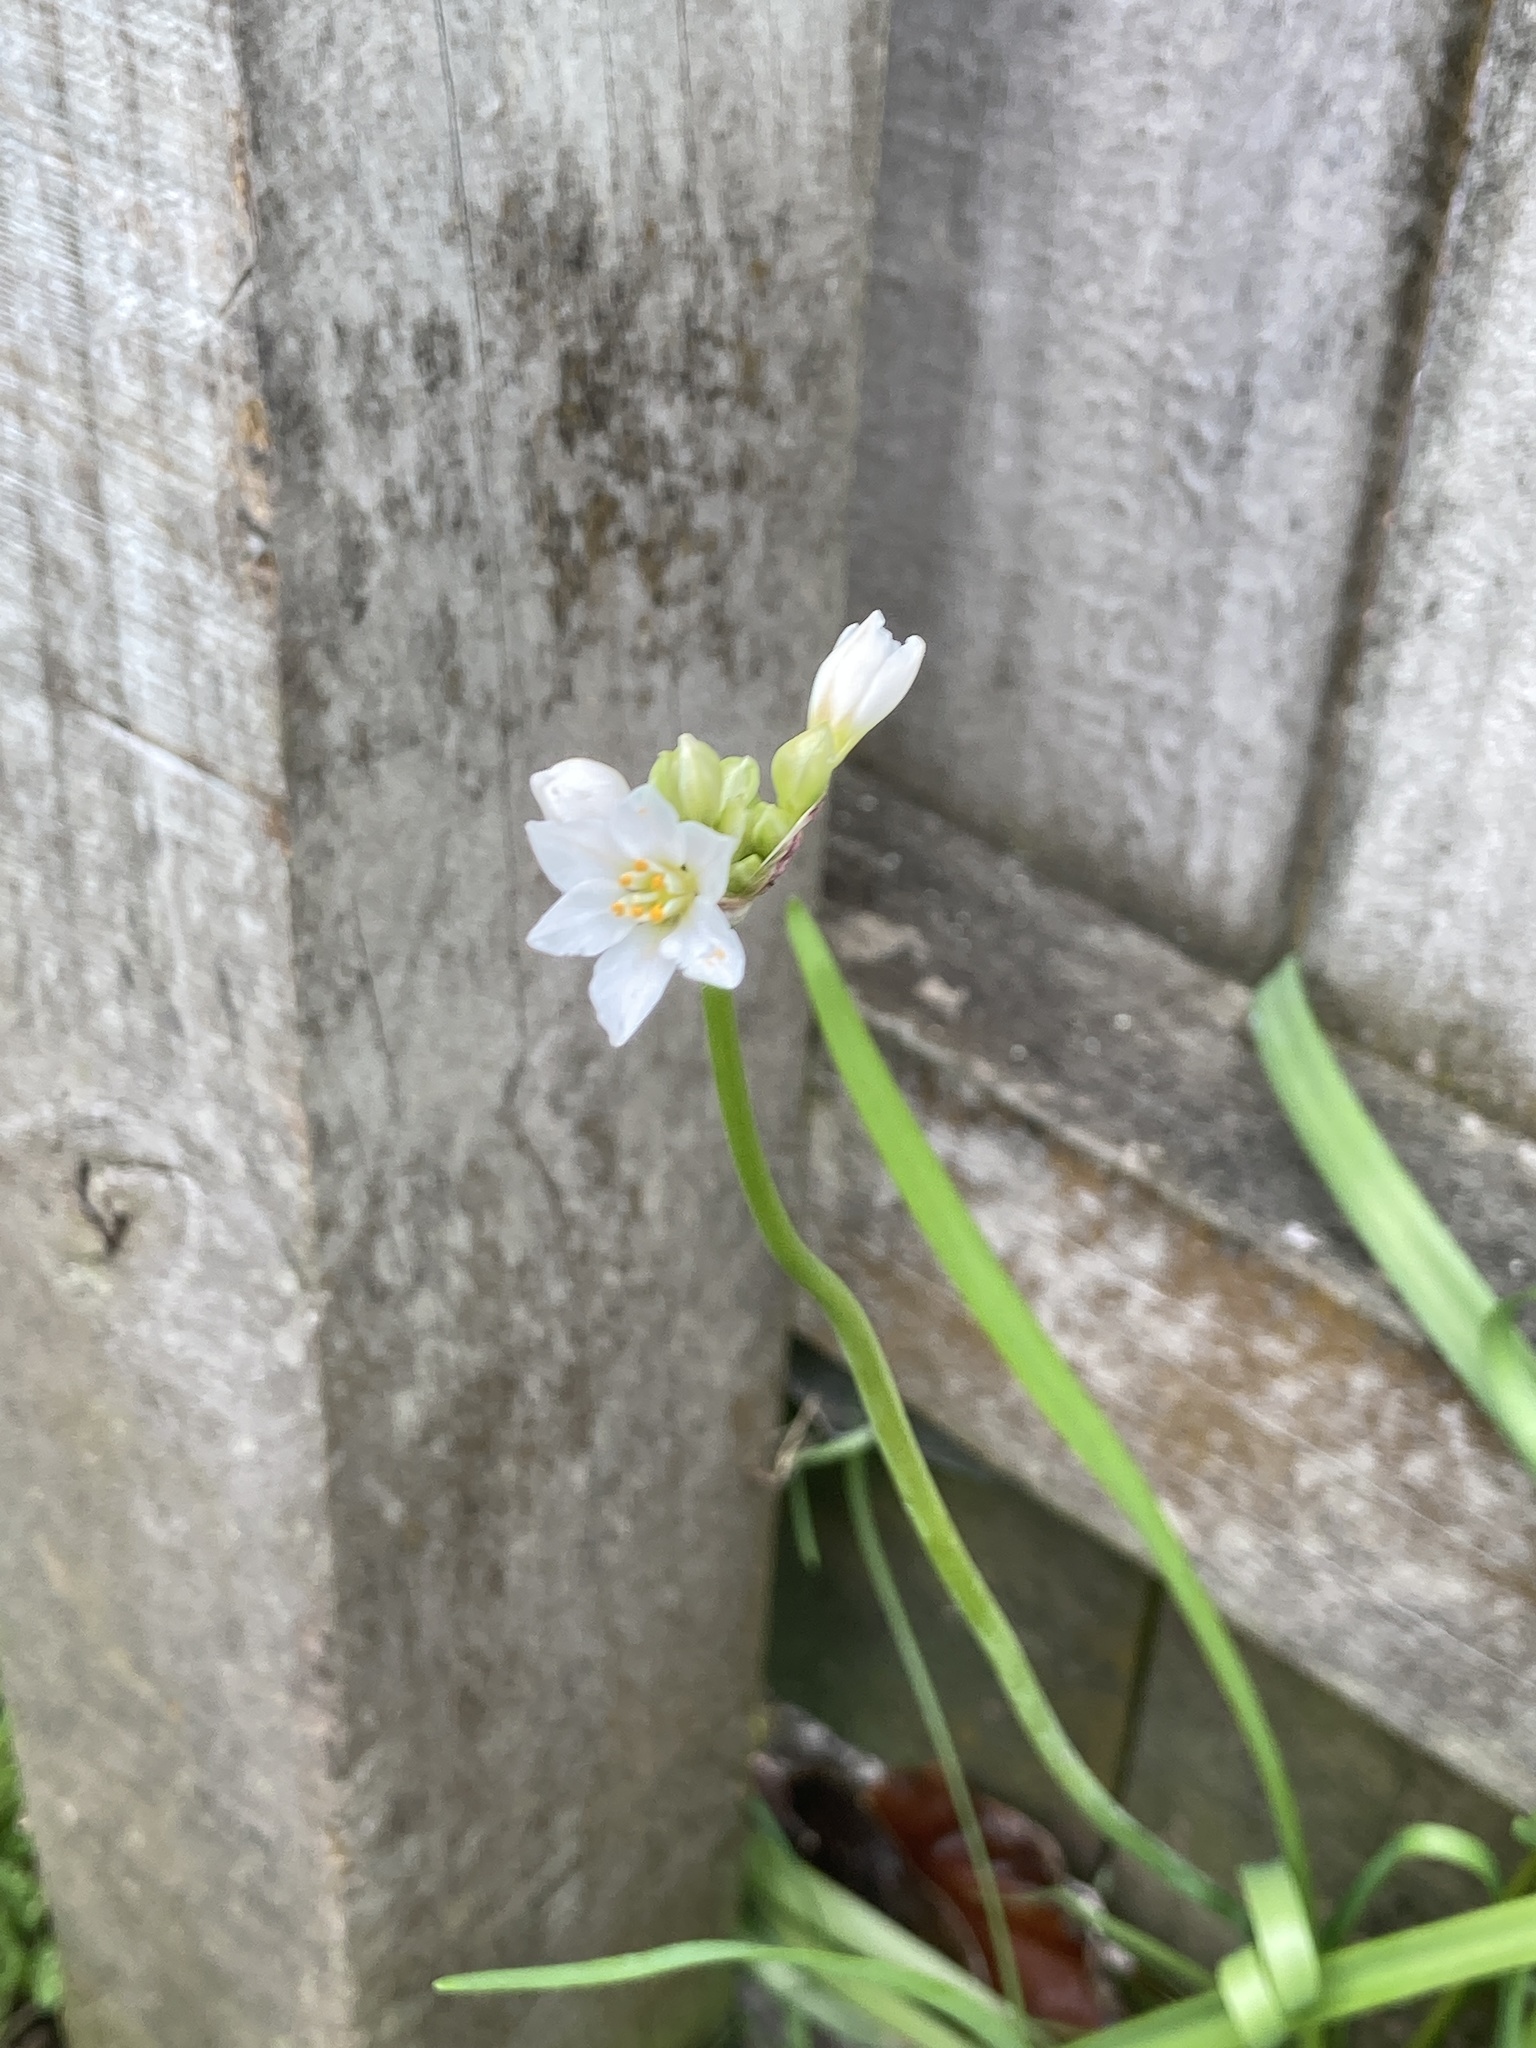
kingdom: Plantae
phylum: Tracheophyta
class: Liliopsida
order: Asparagales
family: Amaryllidaceae
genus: Nothoscordum
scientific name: Nothoscordum gracile
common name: Slender false garlic
